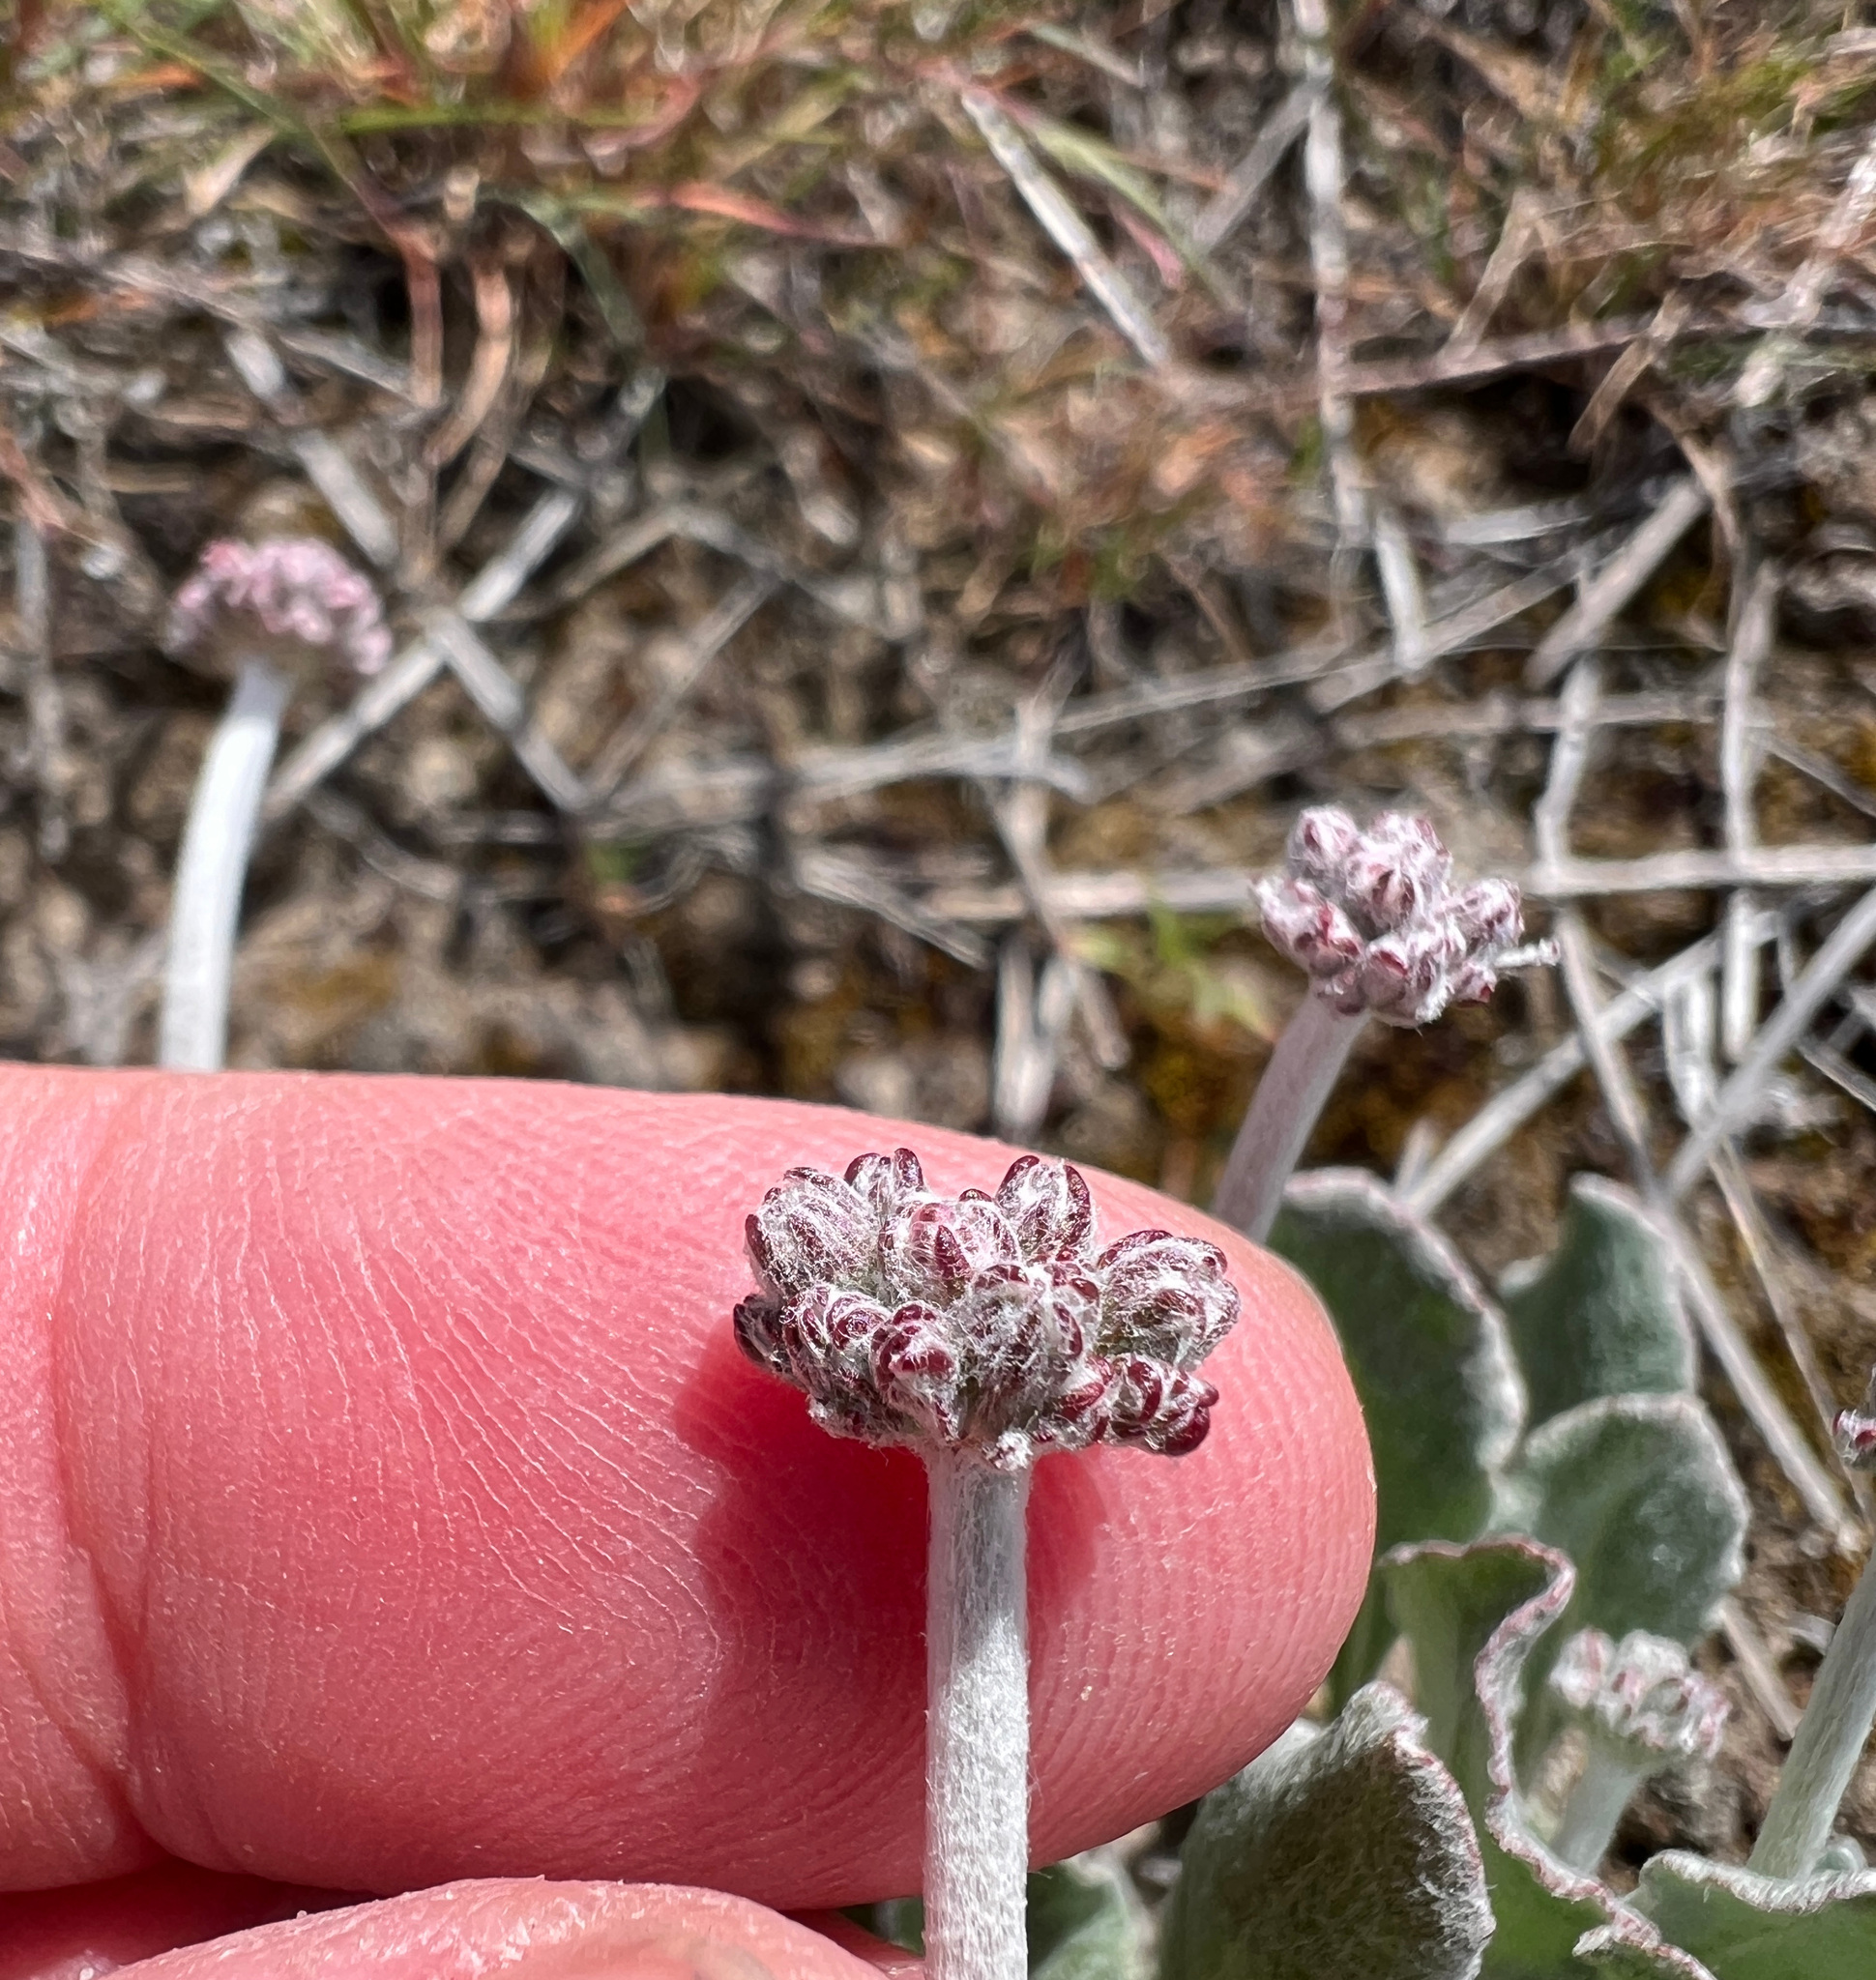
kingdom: Plantae
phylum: Tracheophyta
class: Magnoliopsida
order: Caryophyllales
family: Polygonaceae
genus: Eriogonum
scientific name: Eriogonum strictum
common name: Blue mountain buckwheat
